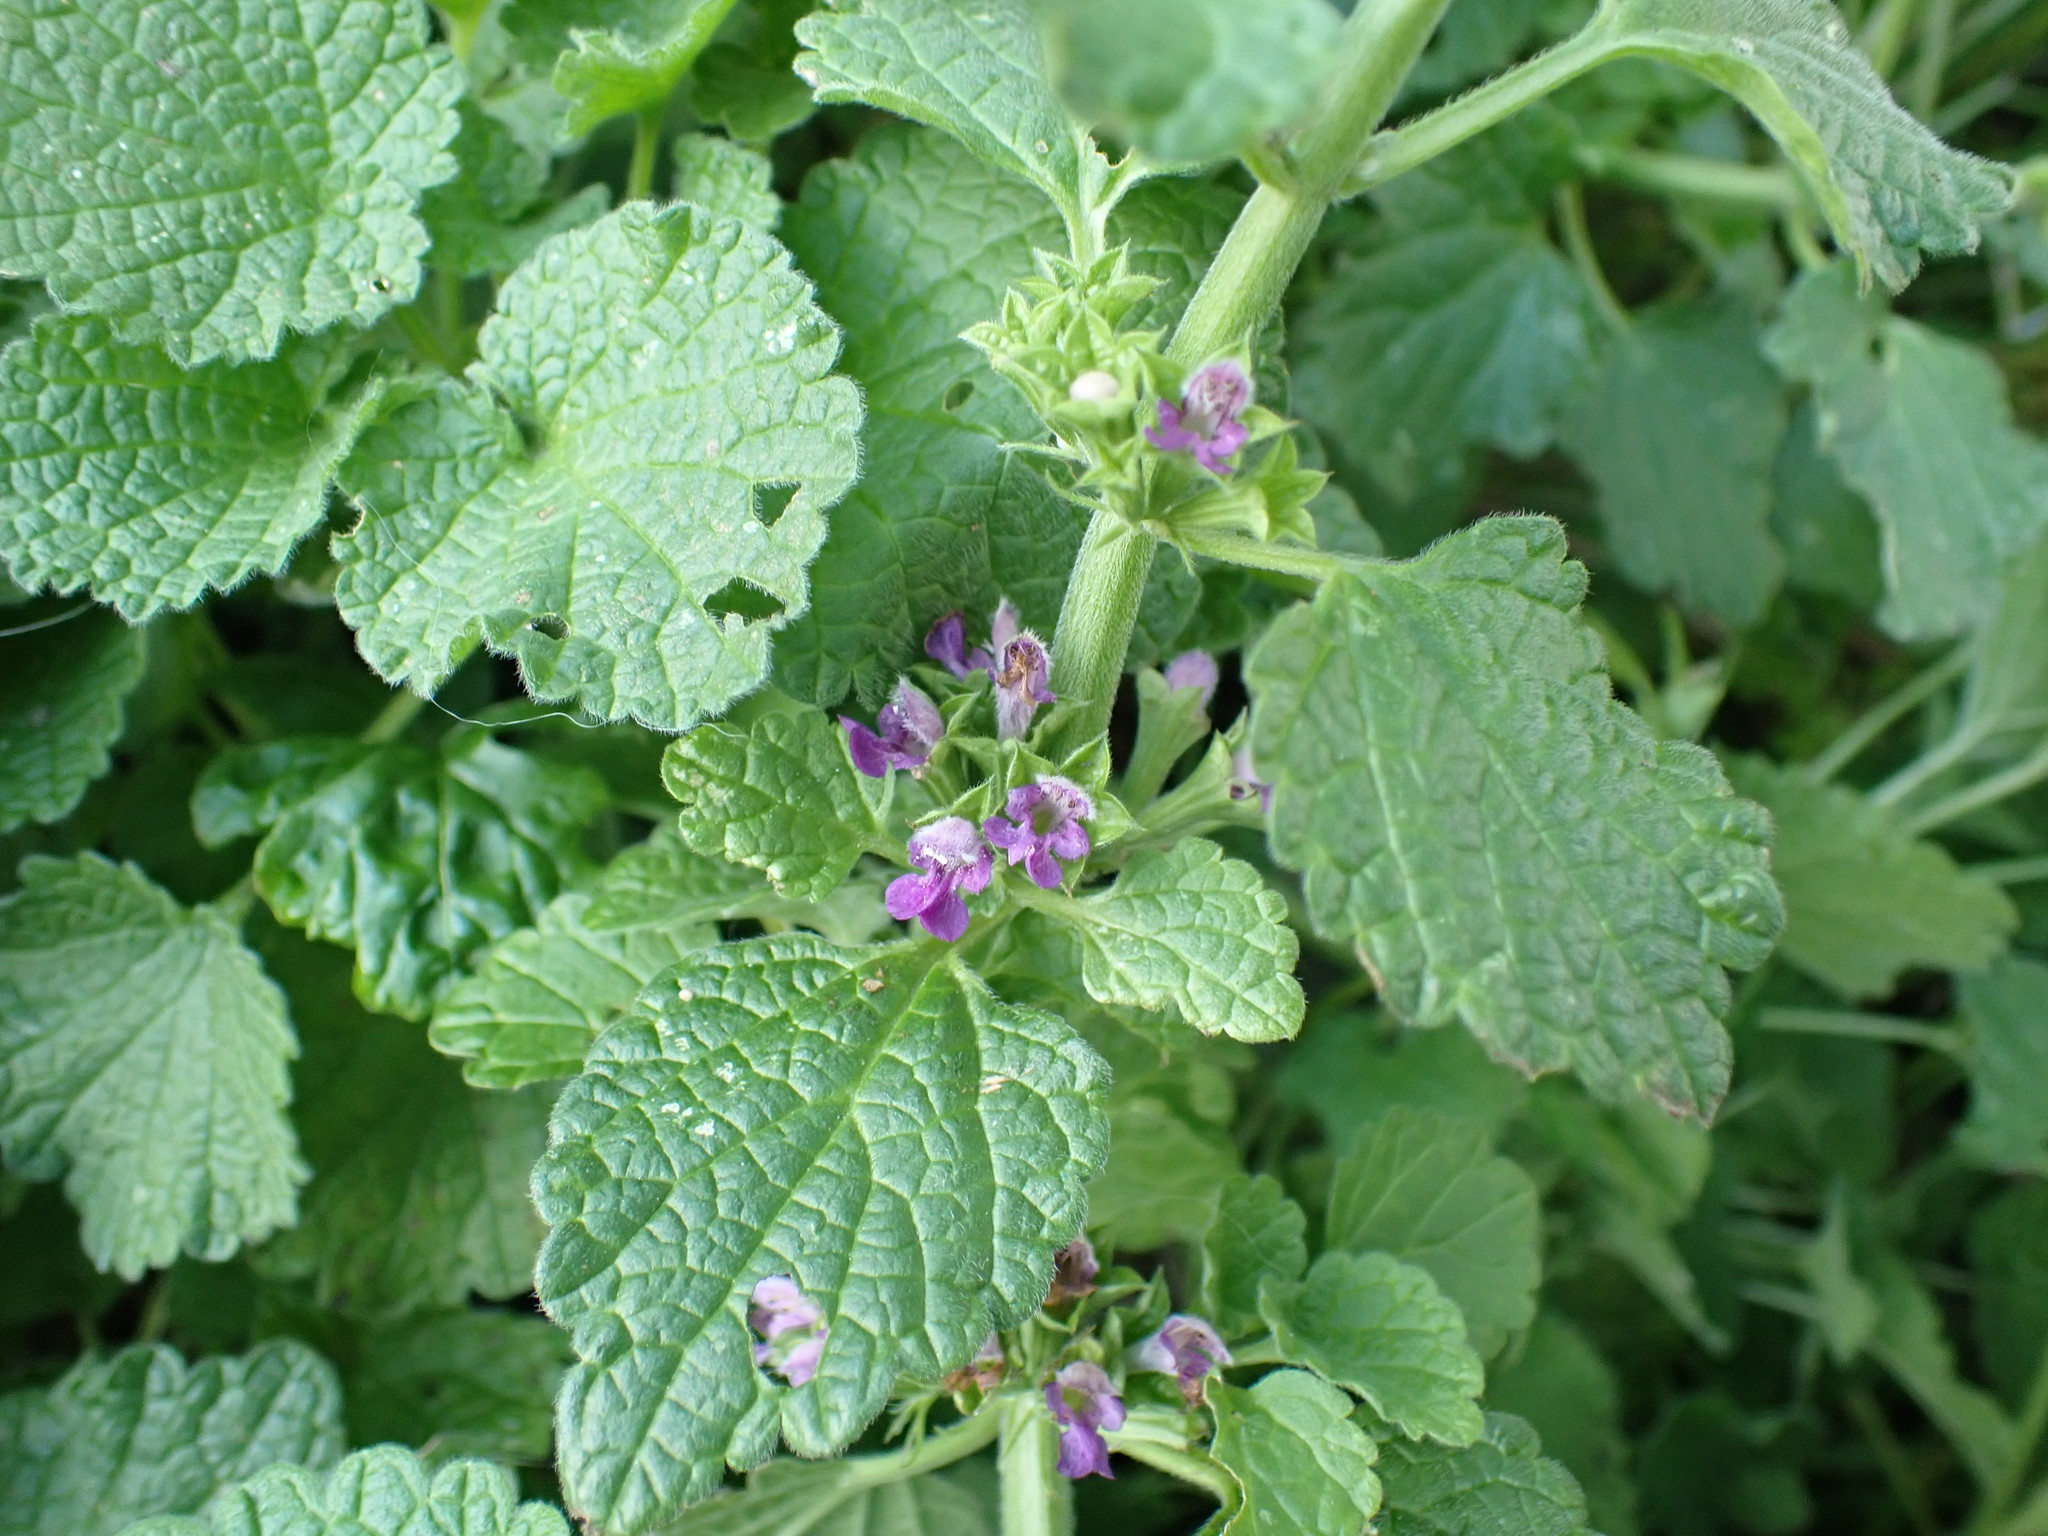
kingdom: Plantae
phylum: Tracheophyta
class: Magnoliopsida
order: Lamiales
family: Lamiaceae
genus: Ballota
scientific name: Ballota nigra
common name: Black horehound
